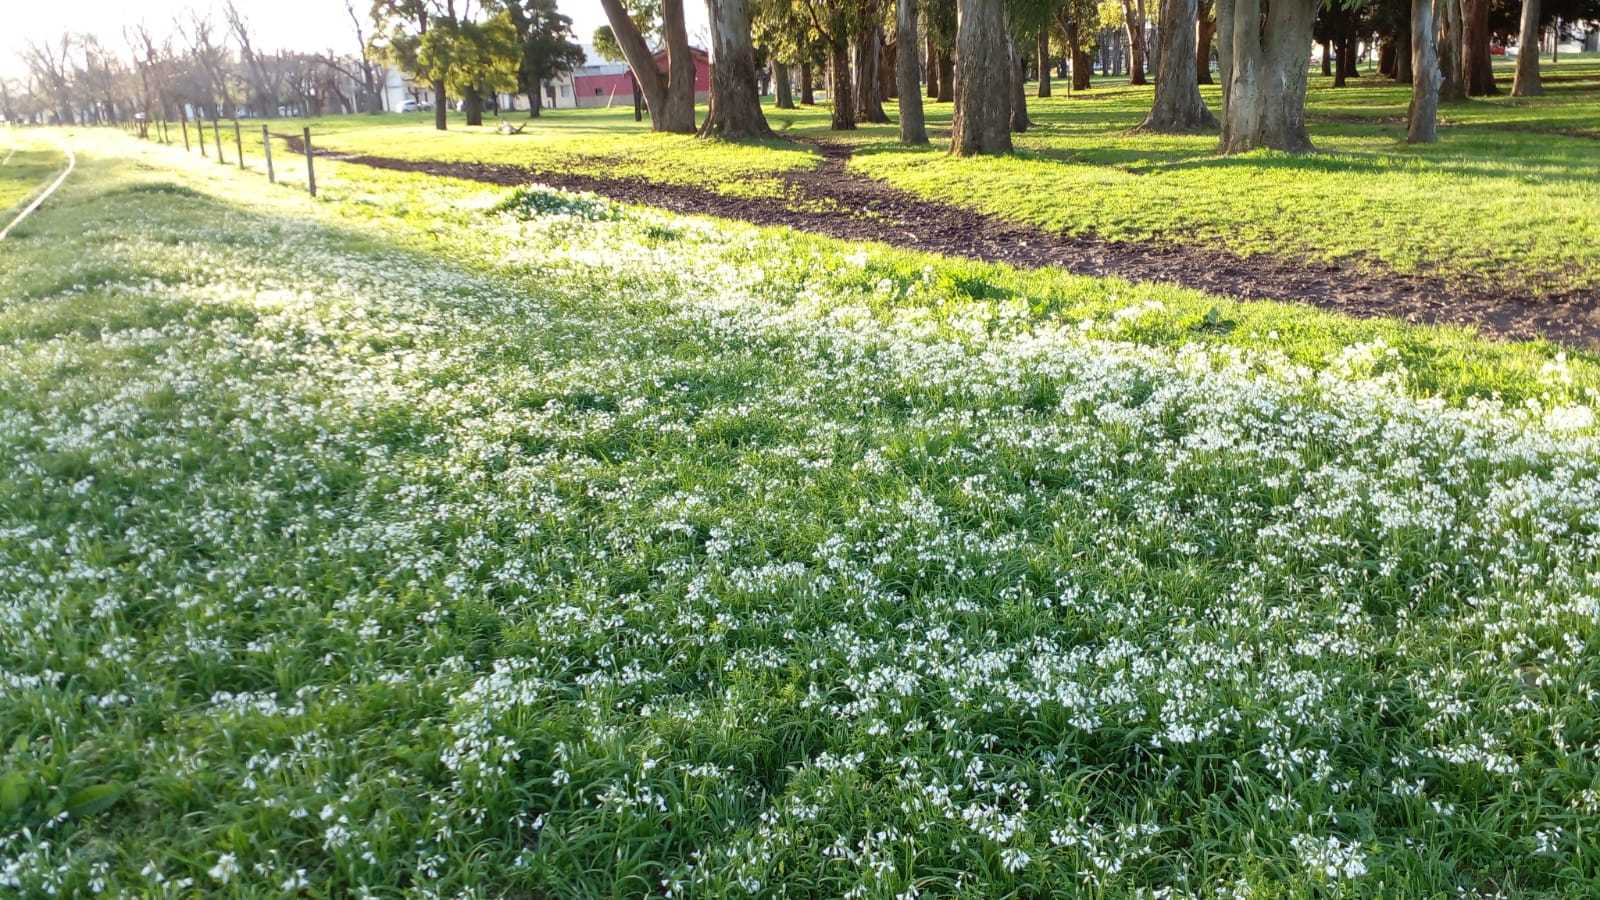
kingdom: Plantae
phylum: Tracheophyta
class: Liliopsida
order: Asparagales
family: Amaryllidaceae
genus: Allium
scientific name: Allium triquetrum
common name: Three-cornered garlic
